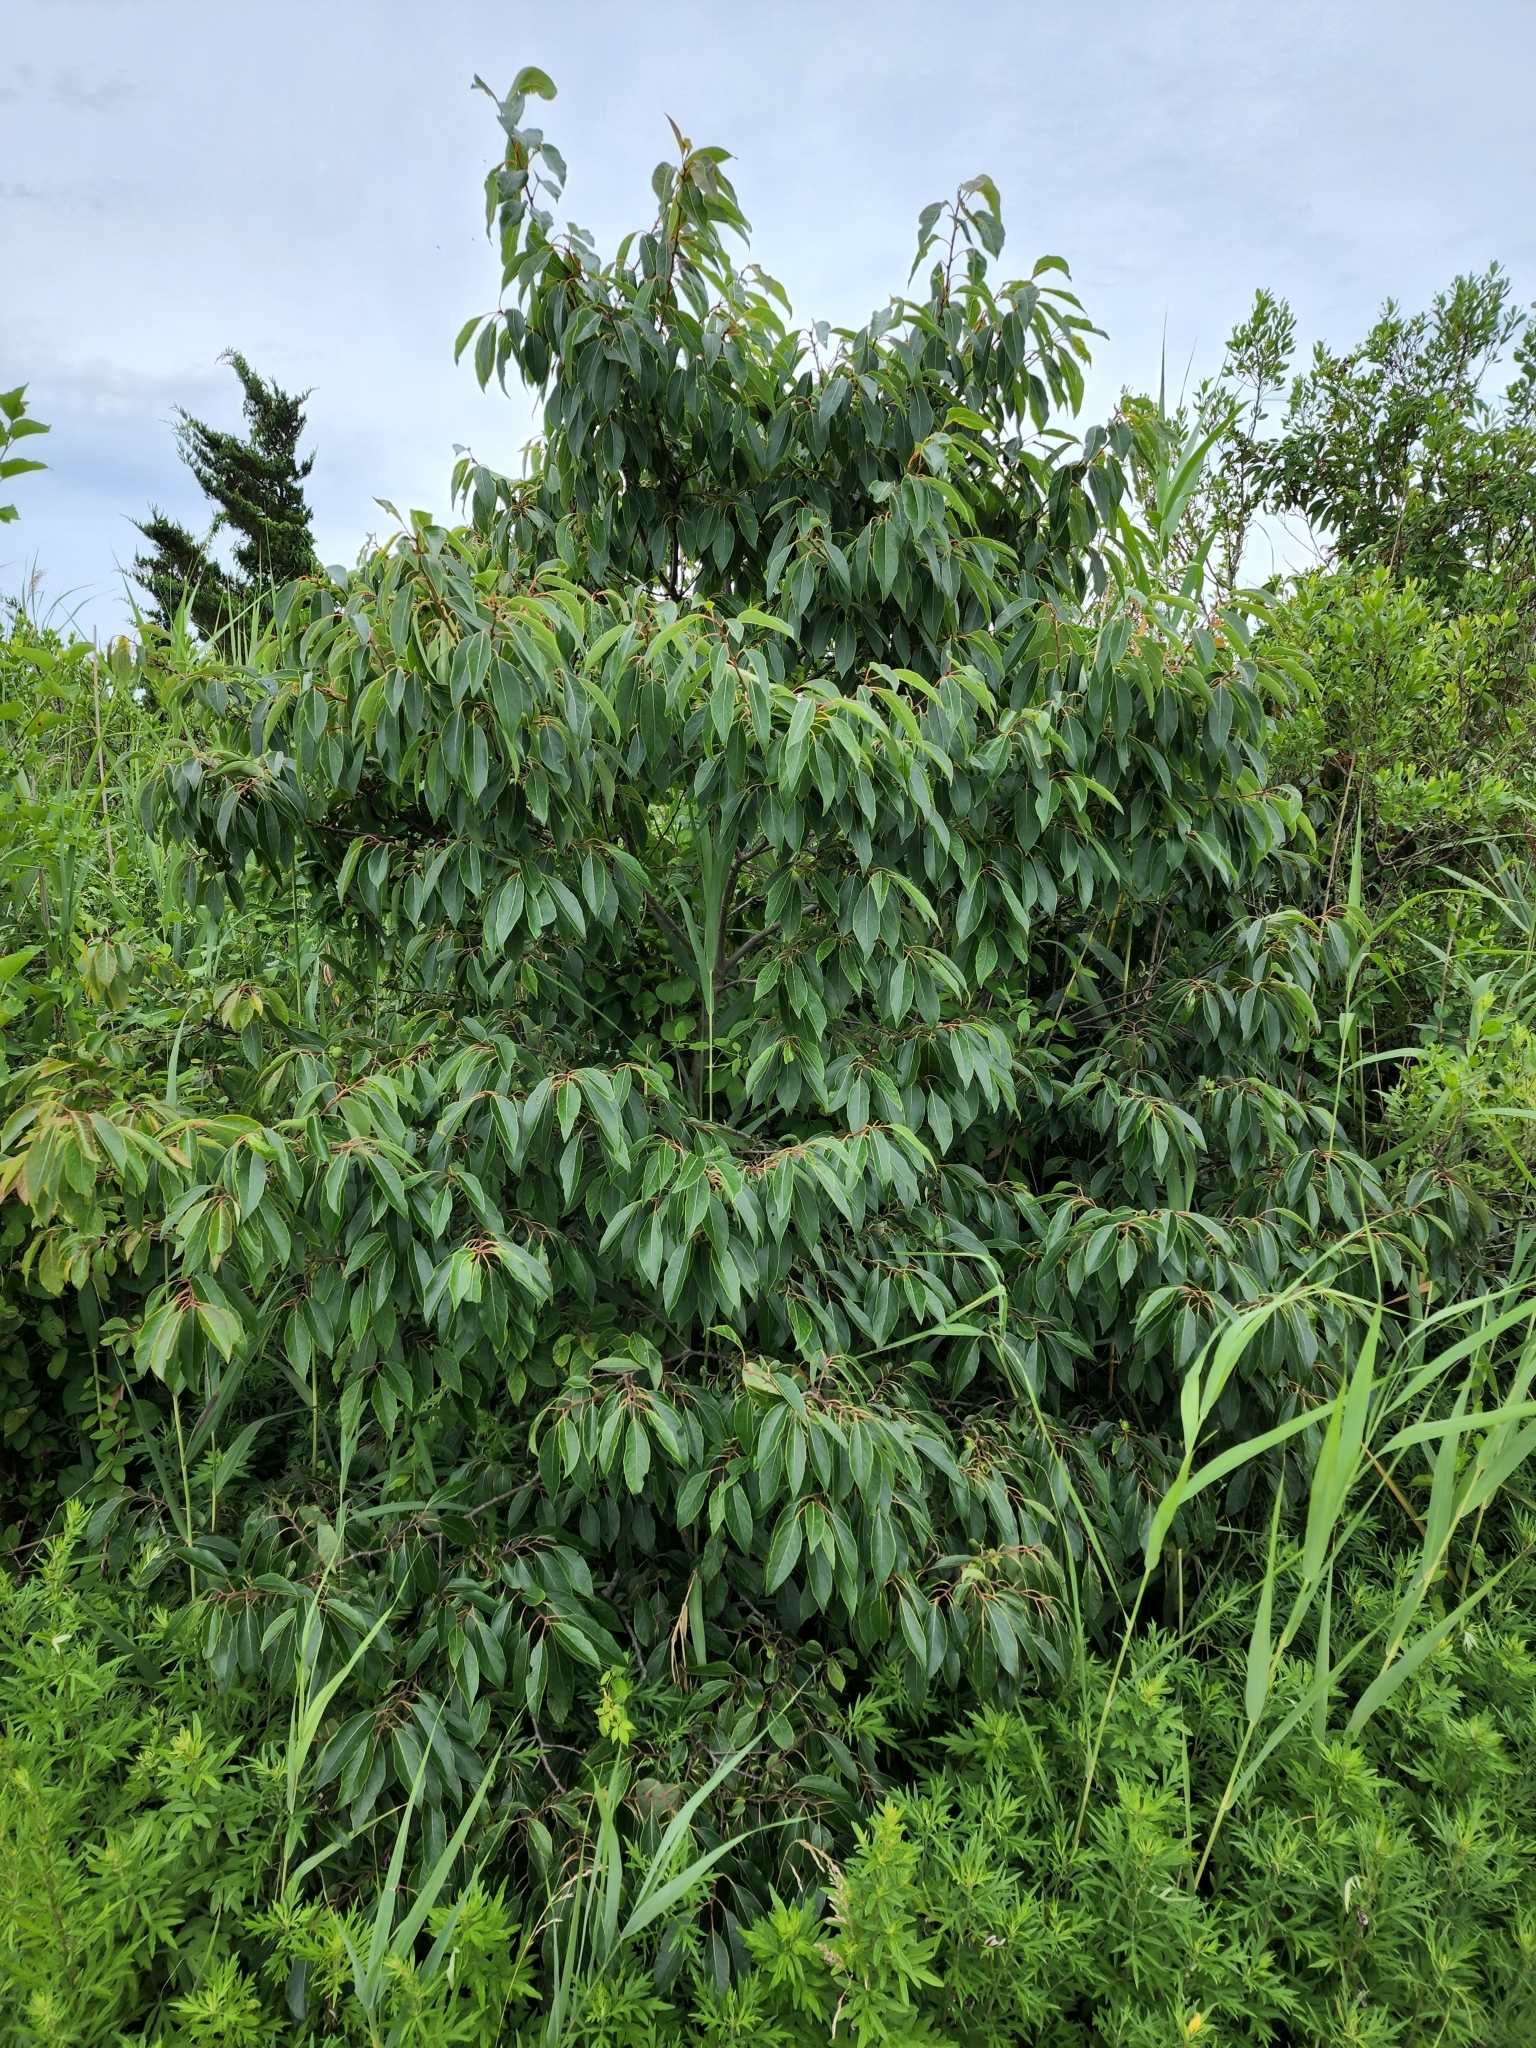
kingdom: Plantae
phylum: Tracheophyta
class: Magnoliopsida
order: Ericales
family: Ebenaceae
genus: Diospyros
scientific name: Diospyros virginiana
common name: Persimmon
